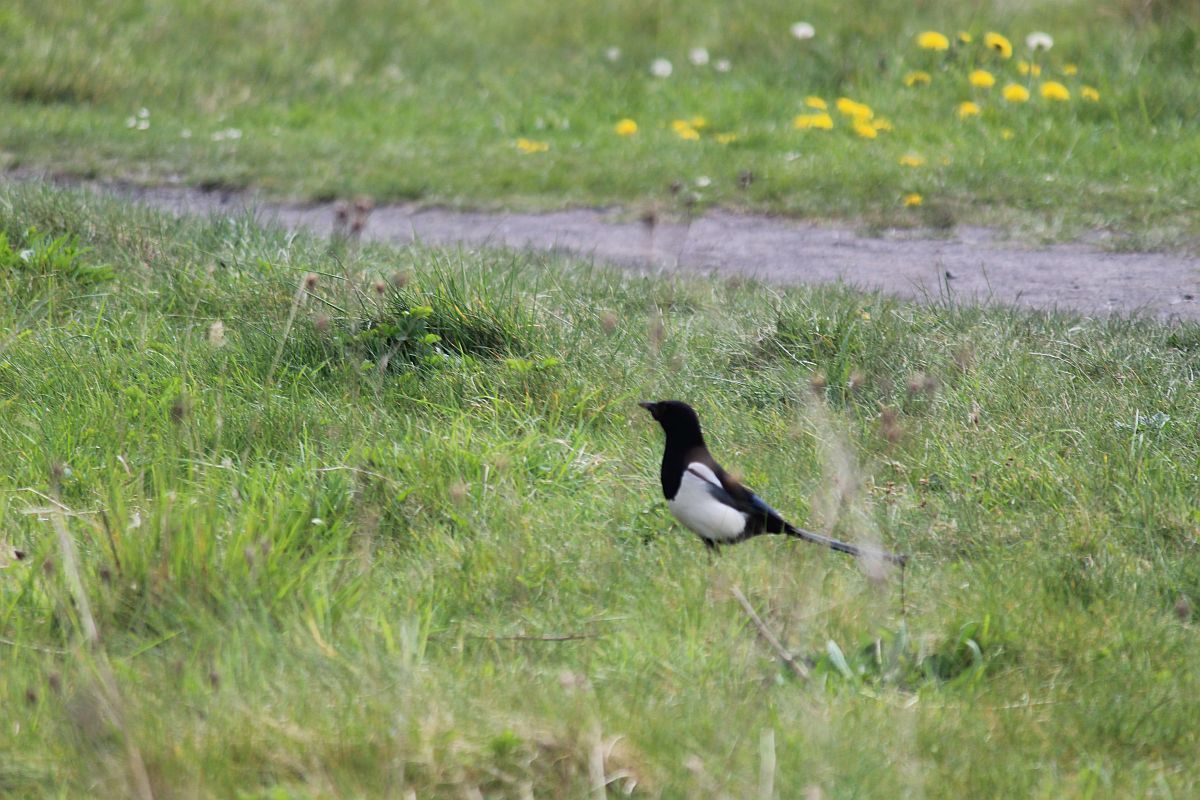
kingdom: Animalia
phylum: Chordata
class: Aves
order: Passeriformes
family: Corvidae
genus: Pica
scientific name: Pica pica
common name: Eurasian magpie
